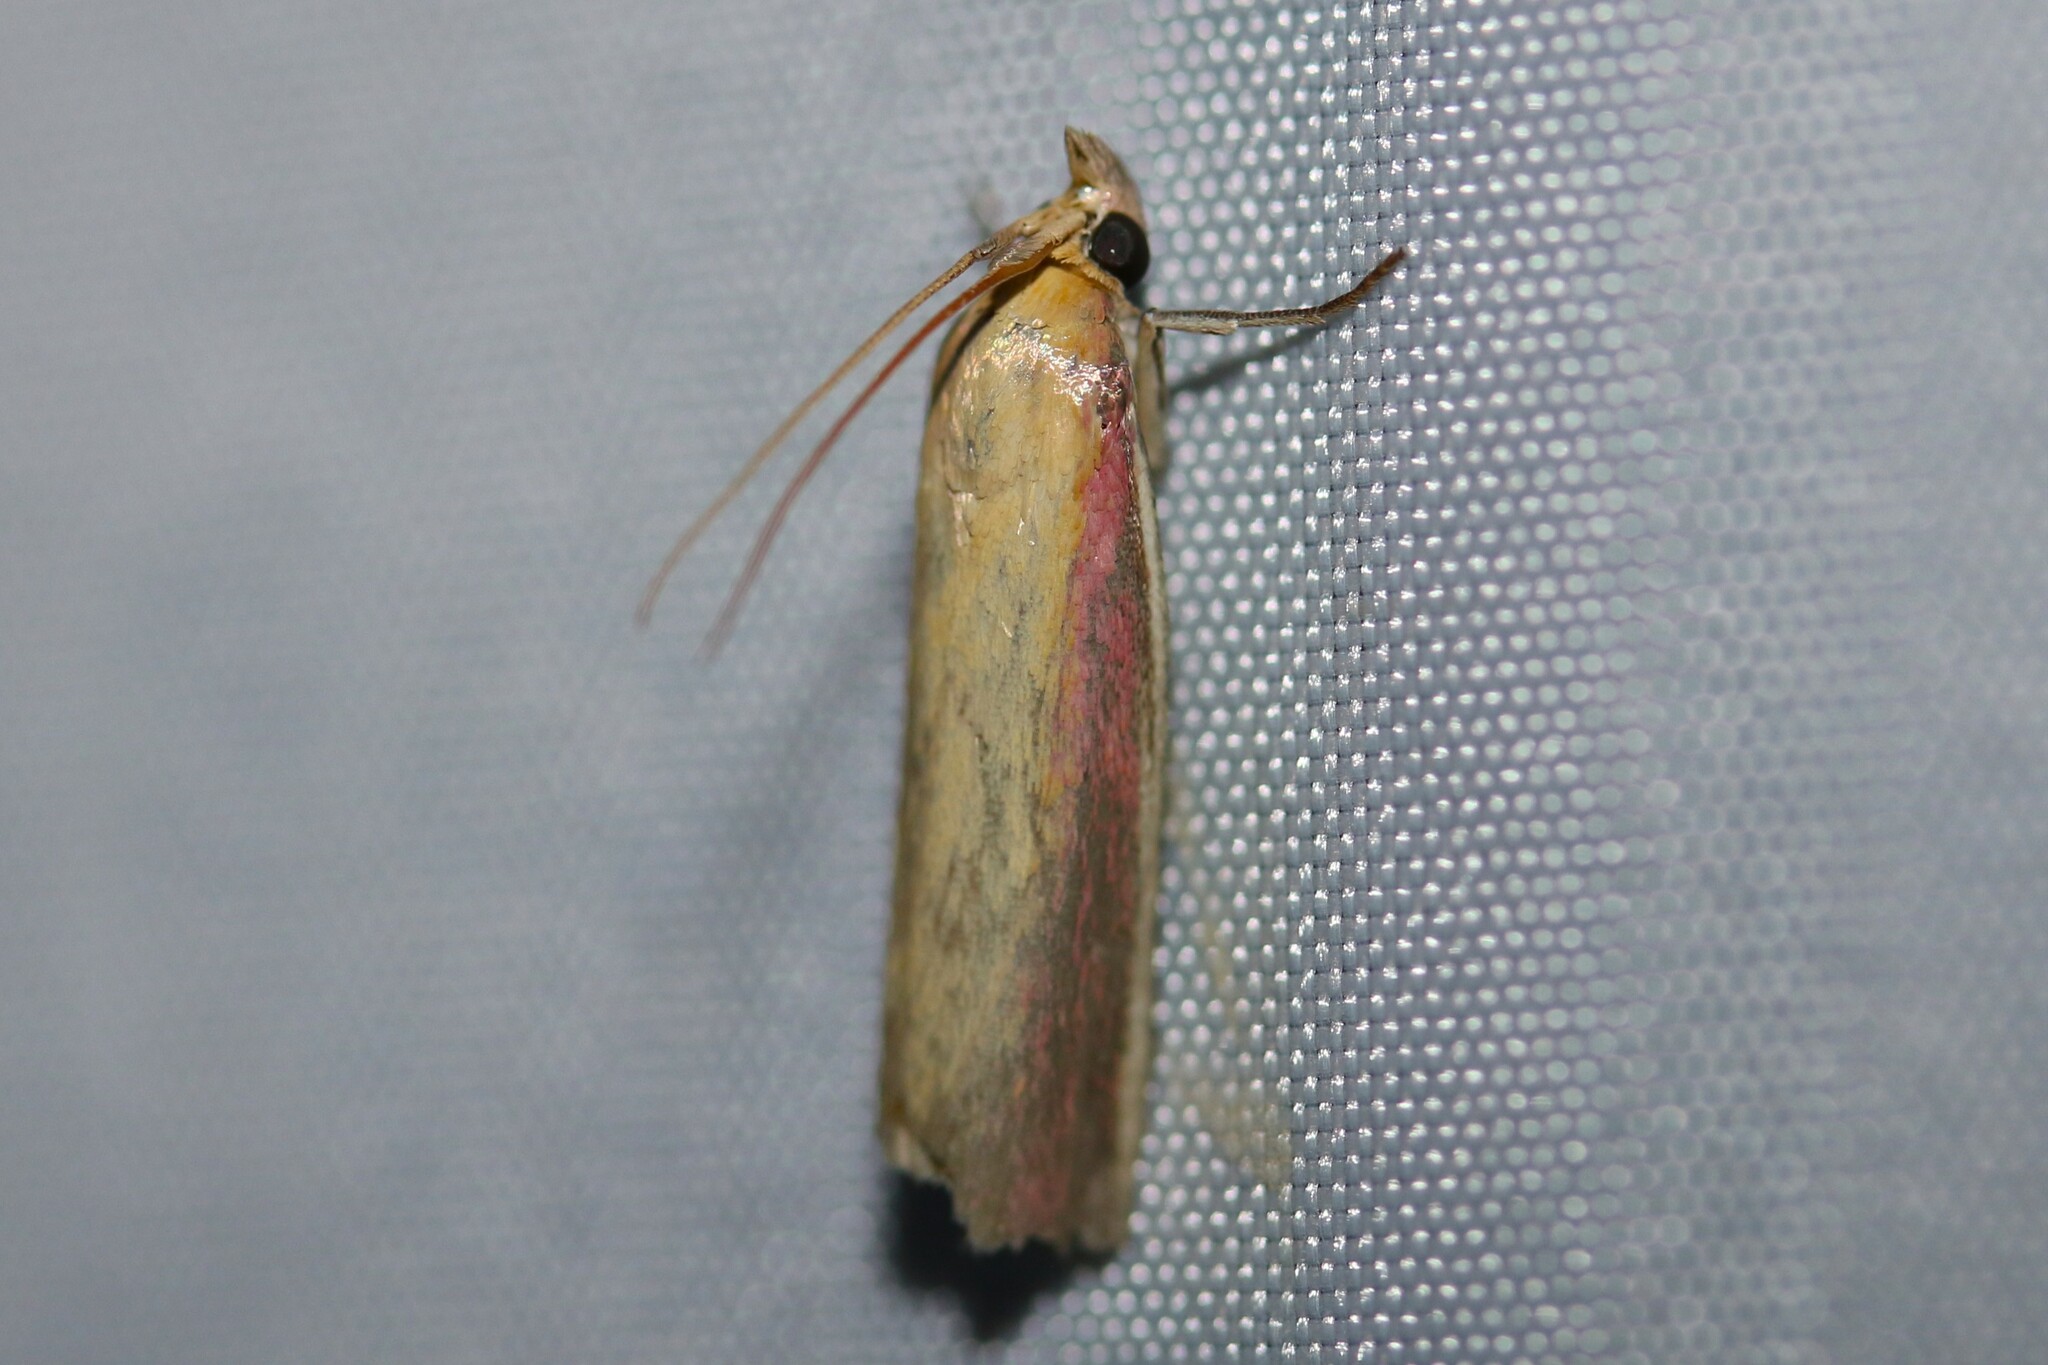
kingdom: Animalia
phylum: Arthropoda
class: Insecta
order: Lepidoptera
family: Pyralidae
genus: Oncocera
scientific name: Oncocera semirubella
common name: Rosy-striped knot-horn
